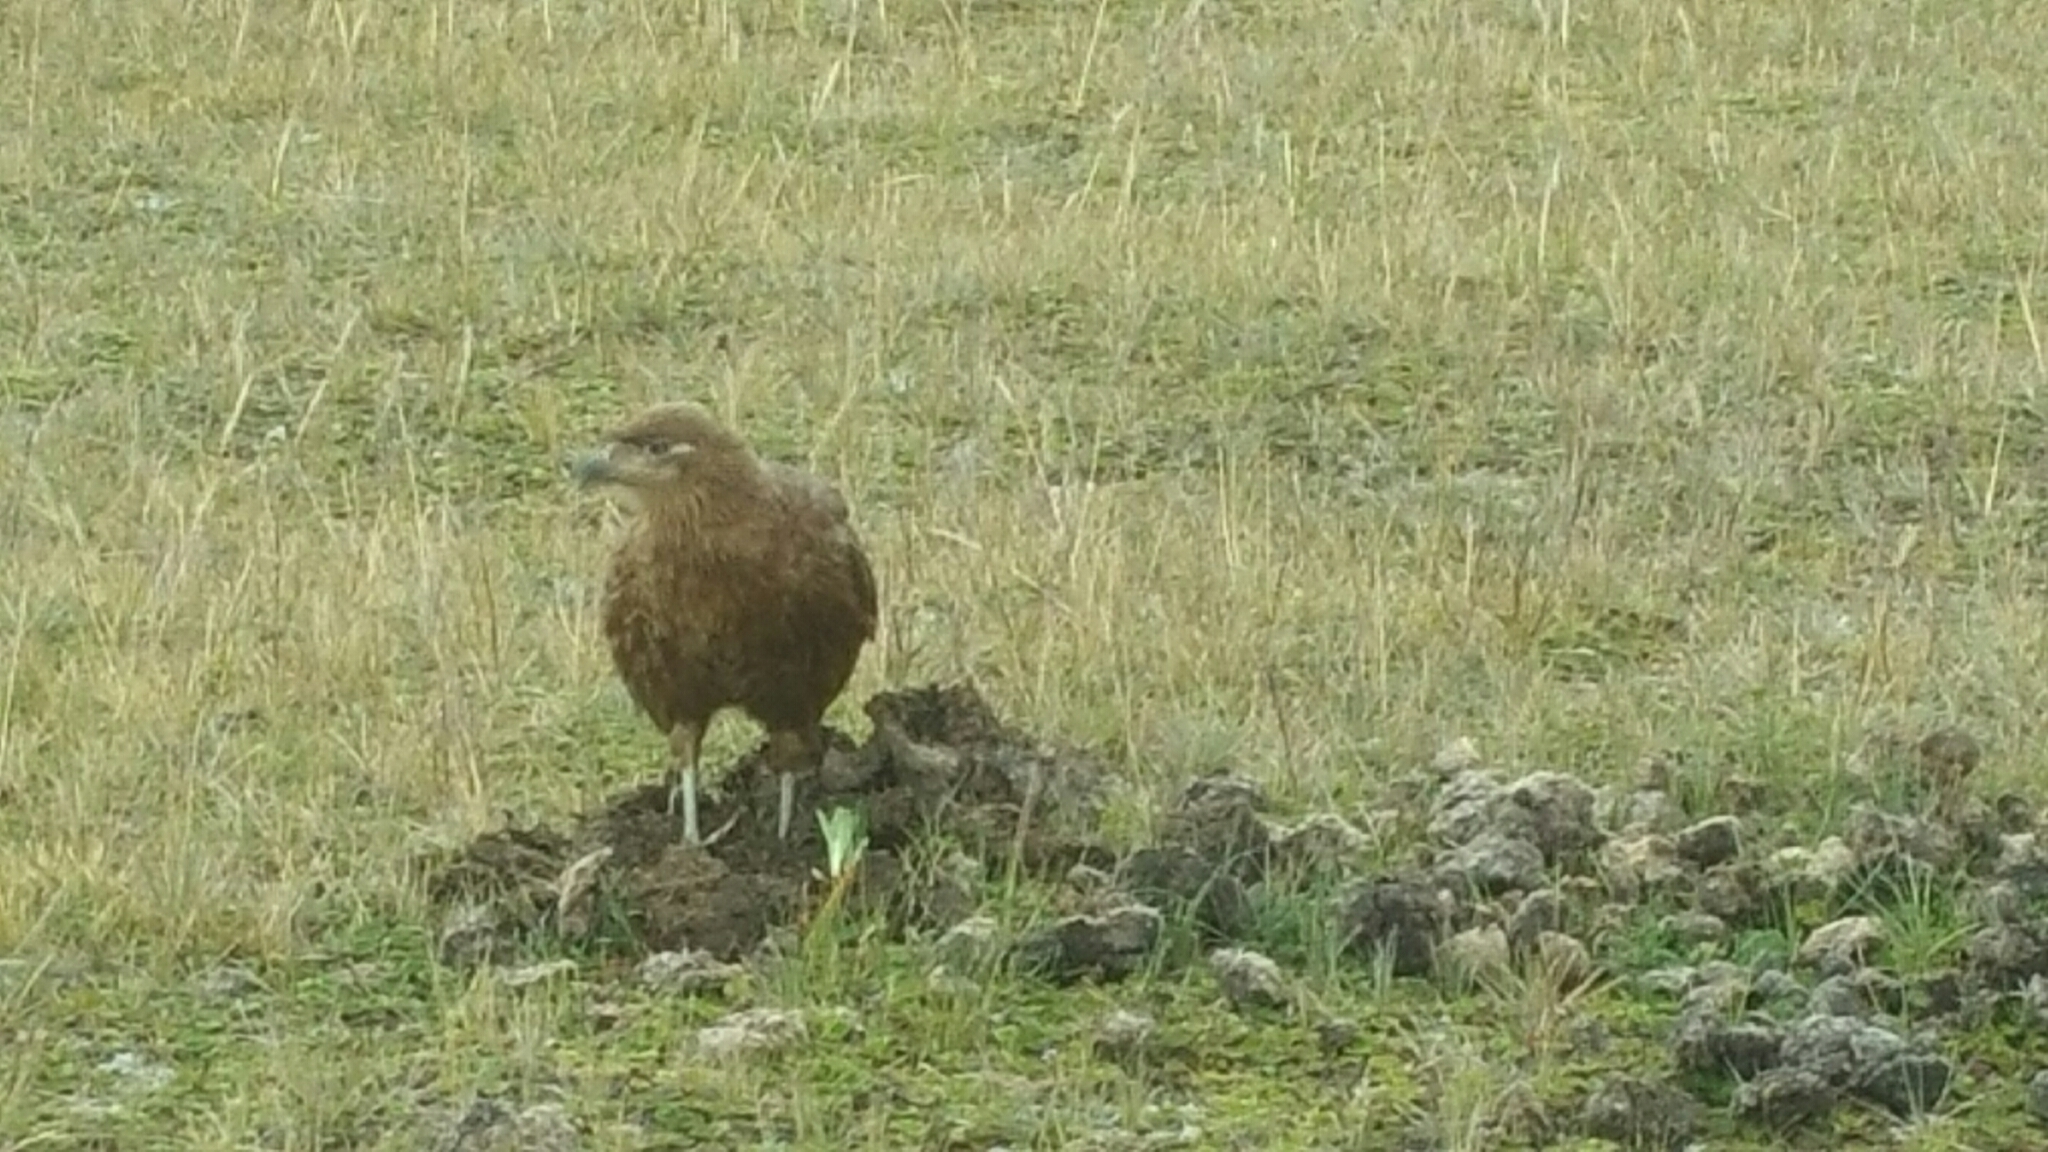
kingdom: Animalia
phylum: Chordata
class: Aves
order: Falconiformes
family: Falconidae
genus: Daptrius
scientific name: Daptrius
